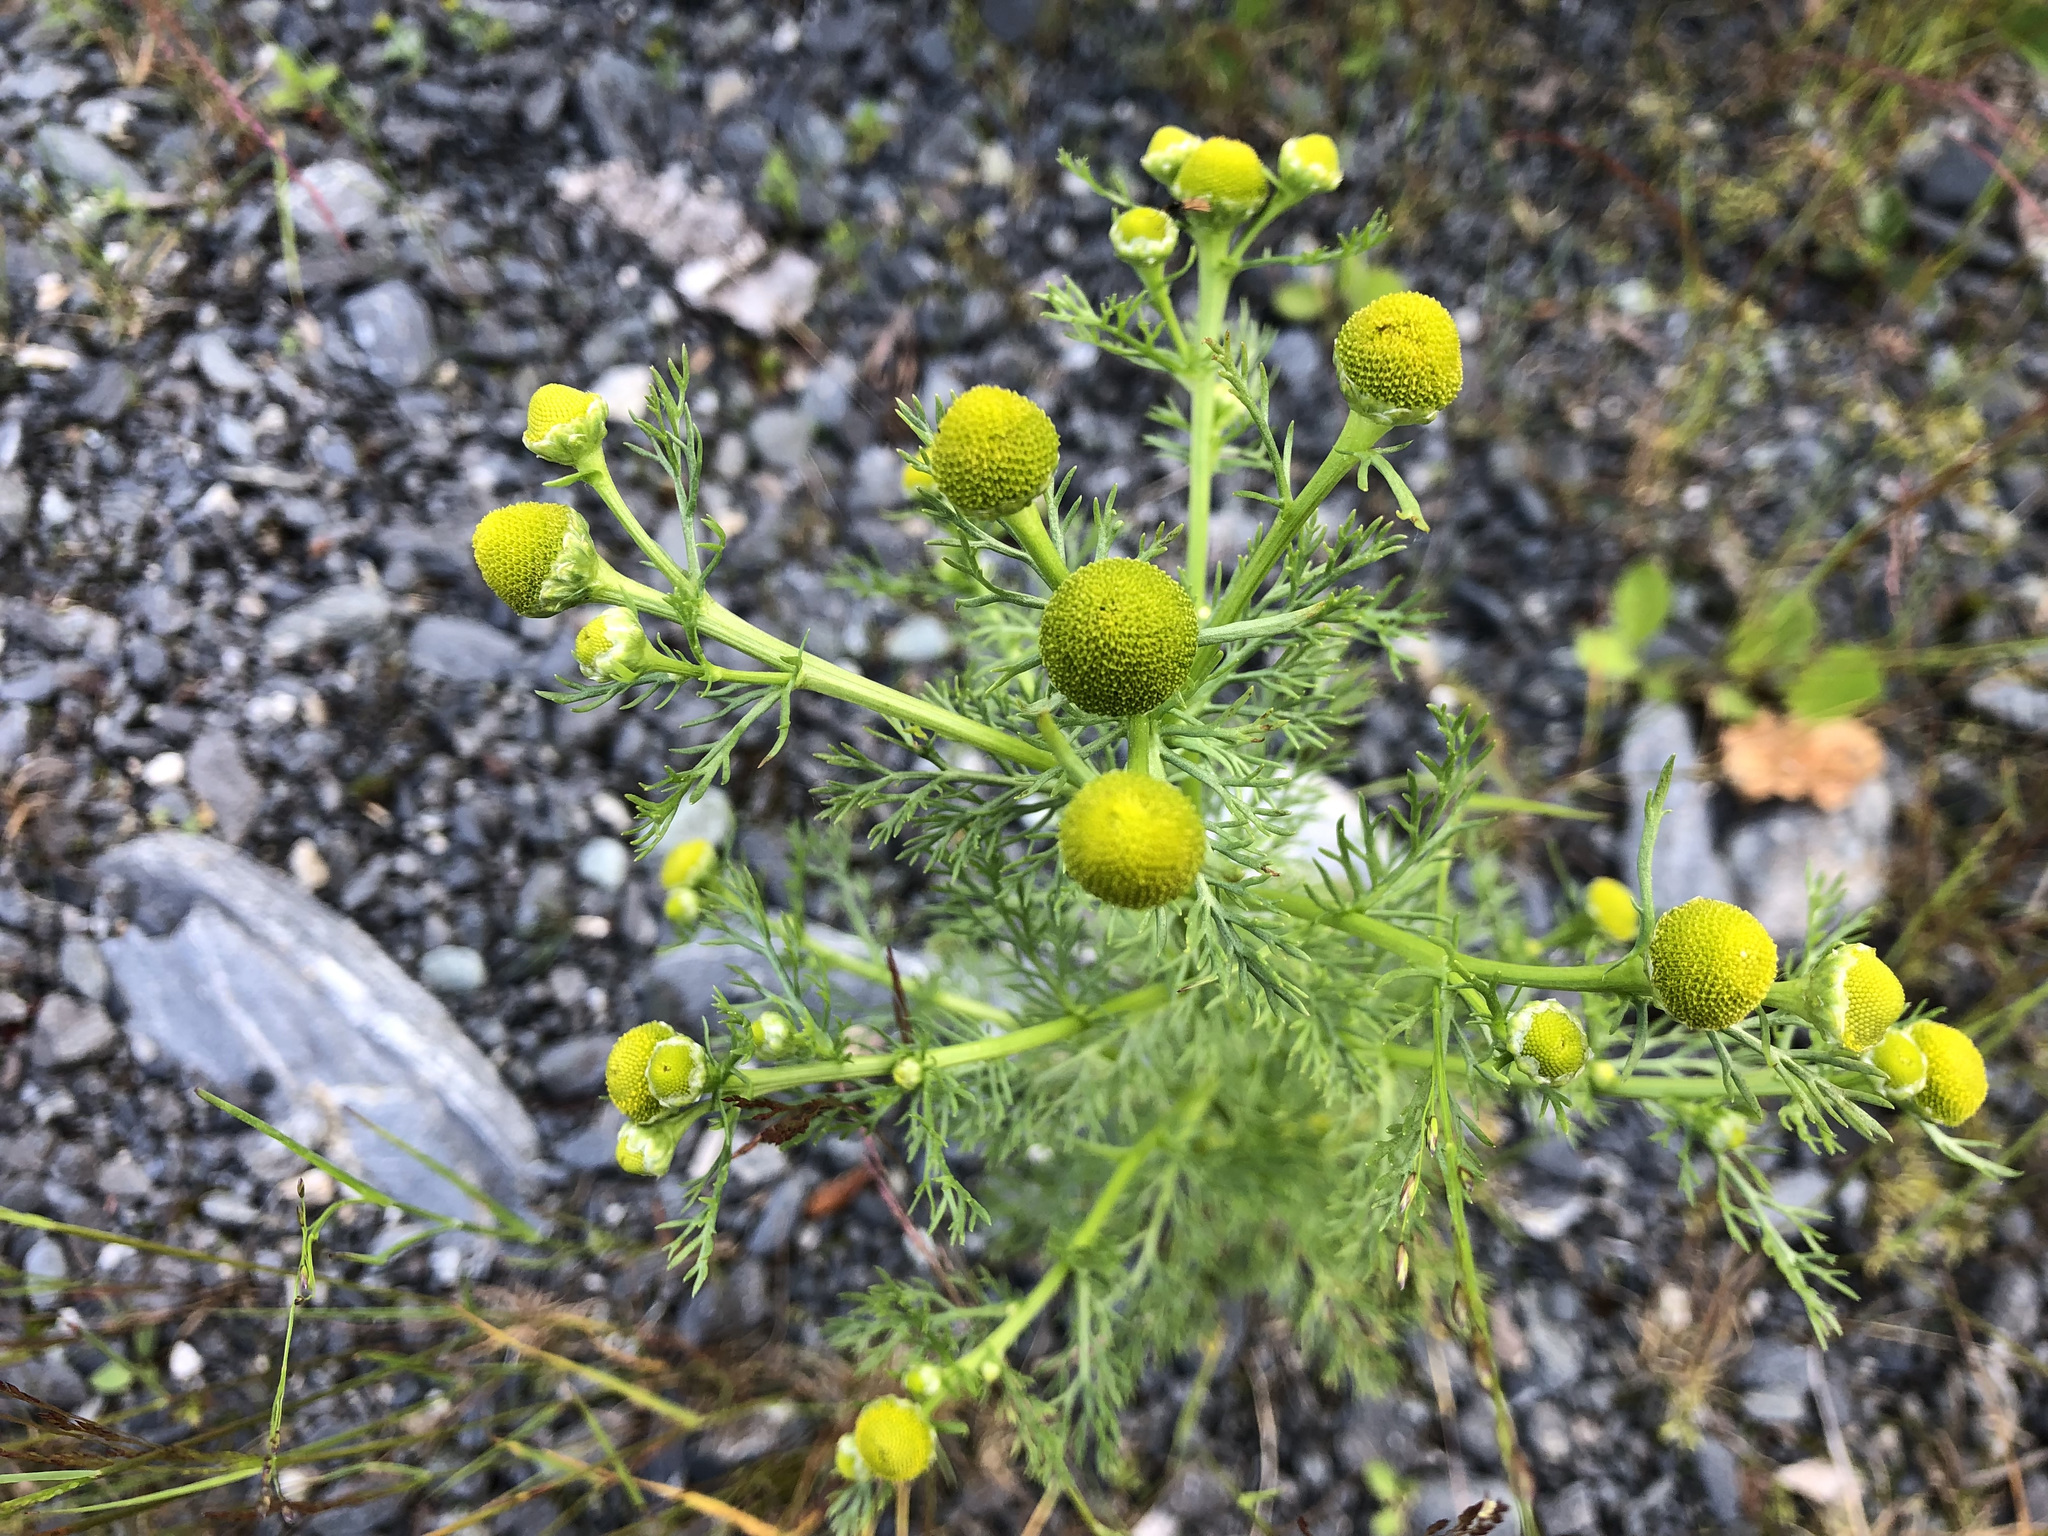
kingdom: Plantae
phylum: Tracheophyta
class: Magnoliopsida
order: Asterales
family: Asteraceae
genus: Matricaria
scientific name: Matricaria discoidea
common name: Disc mayweed
